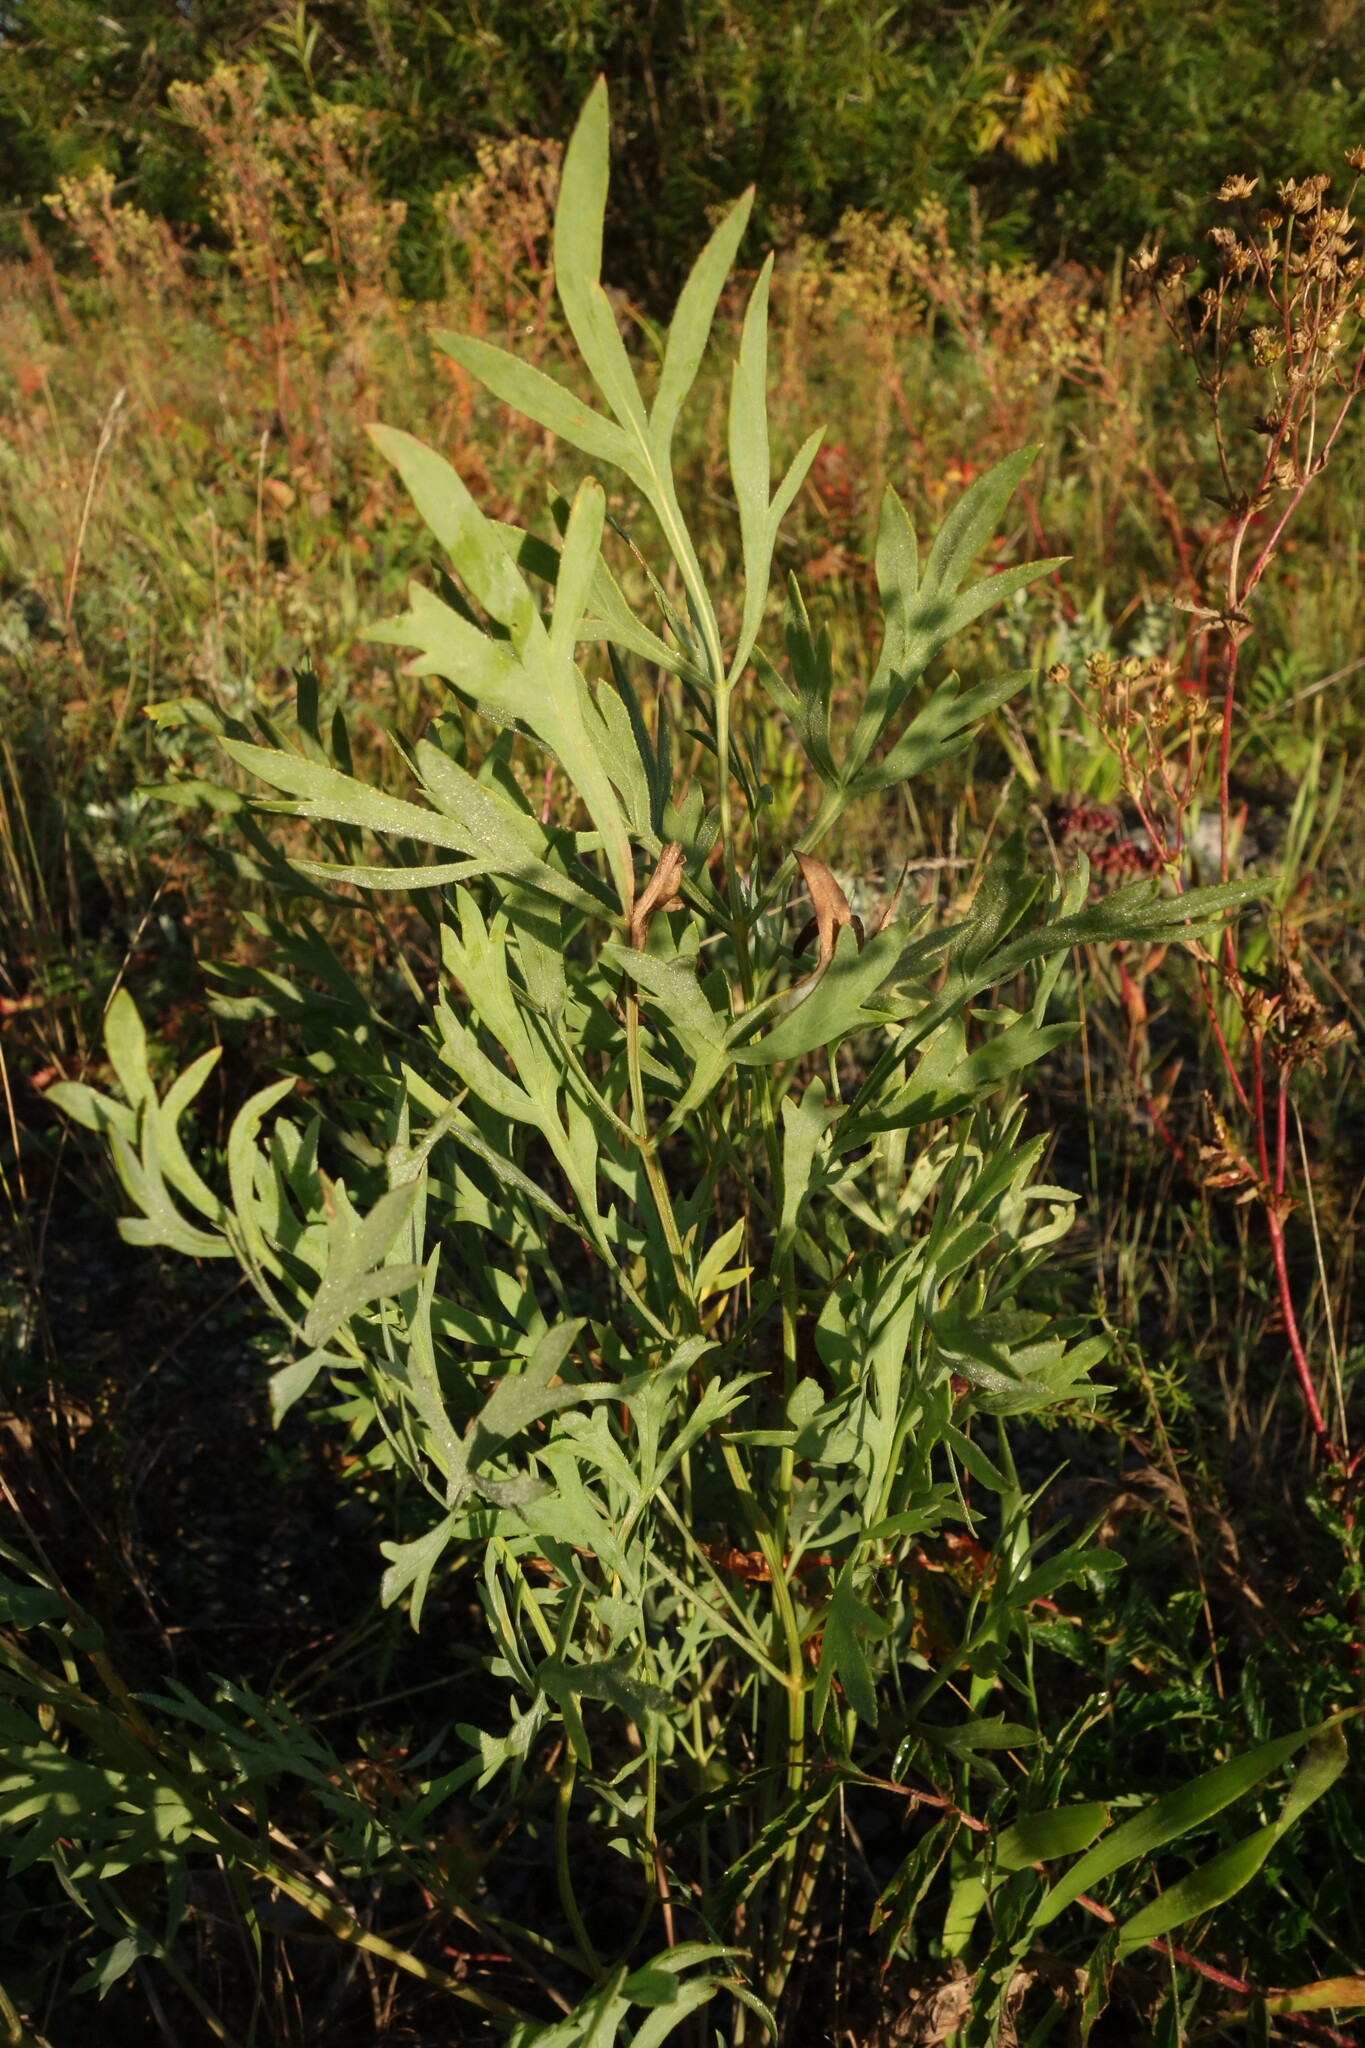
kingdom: Plantae
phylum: Tracheophyta
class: Magnoliopsida
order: Apiales
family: Apiaceae
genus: Saposhnikovia
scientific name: Saposhnikovia divaricata
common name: Siler
